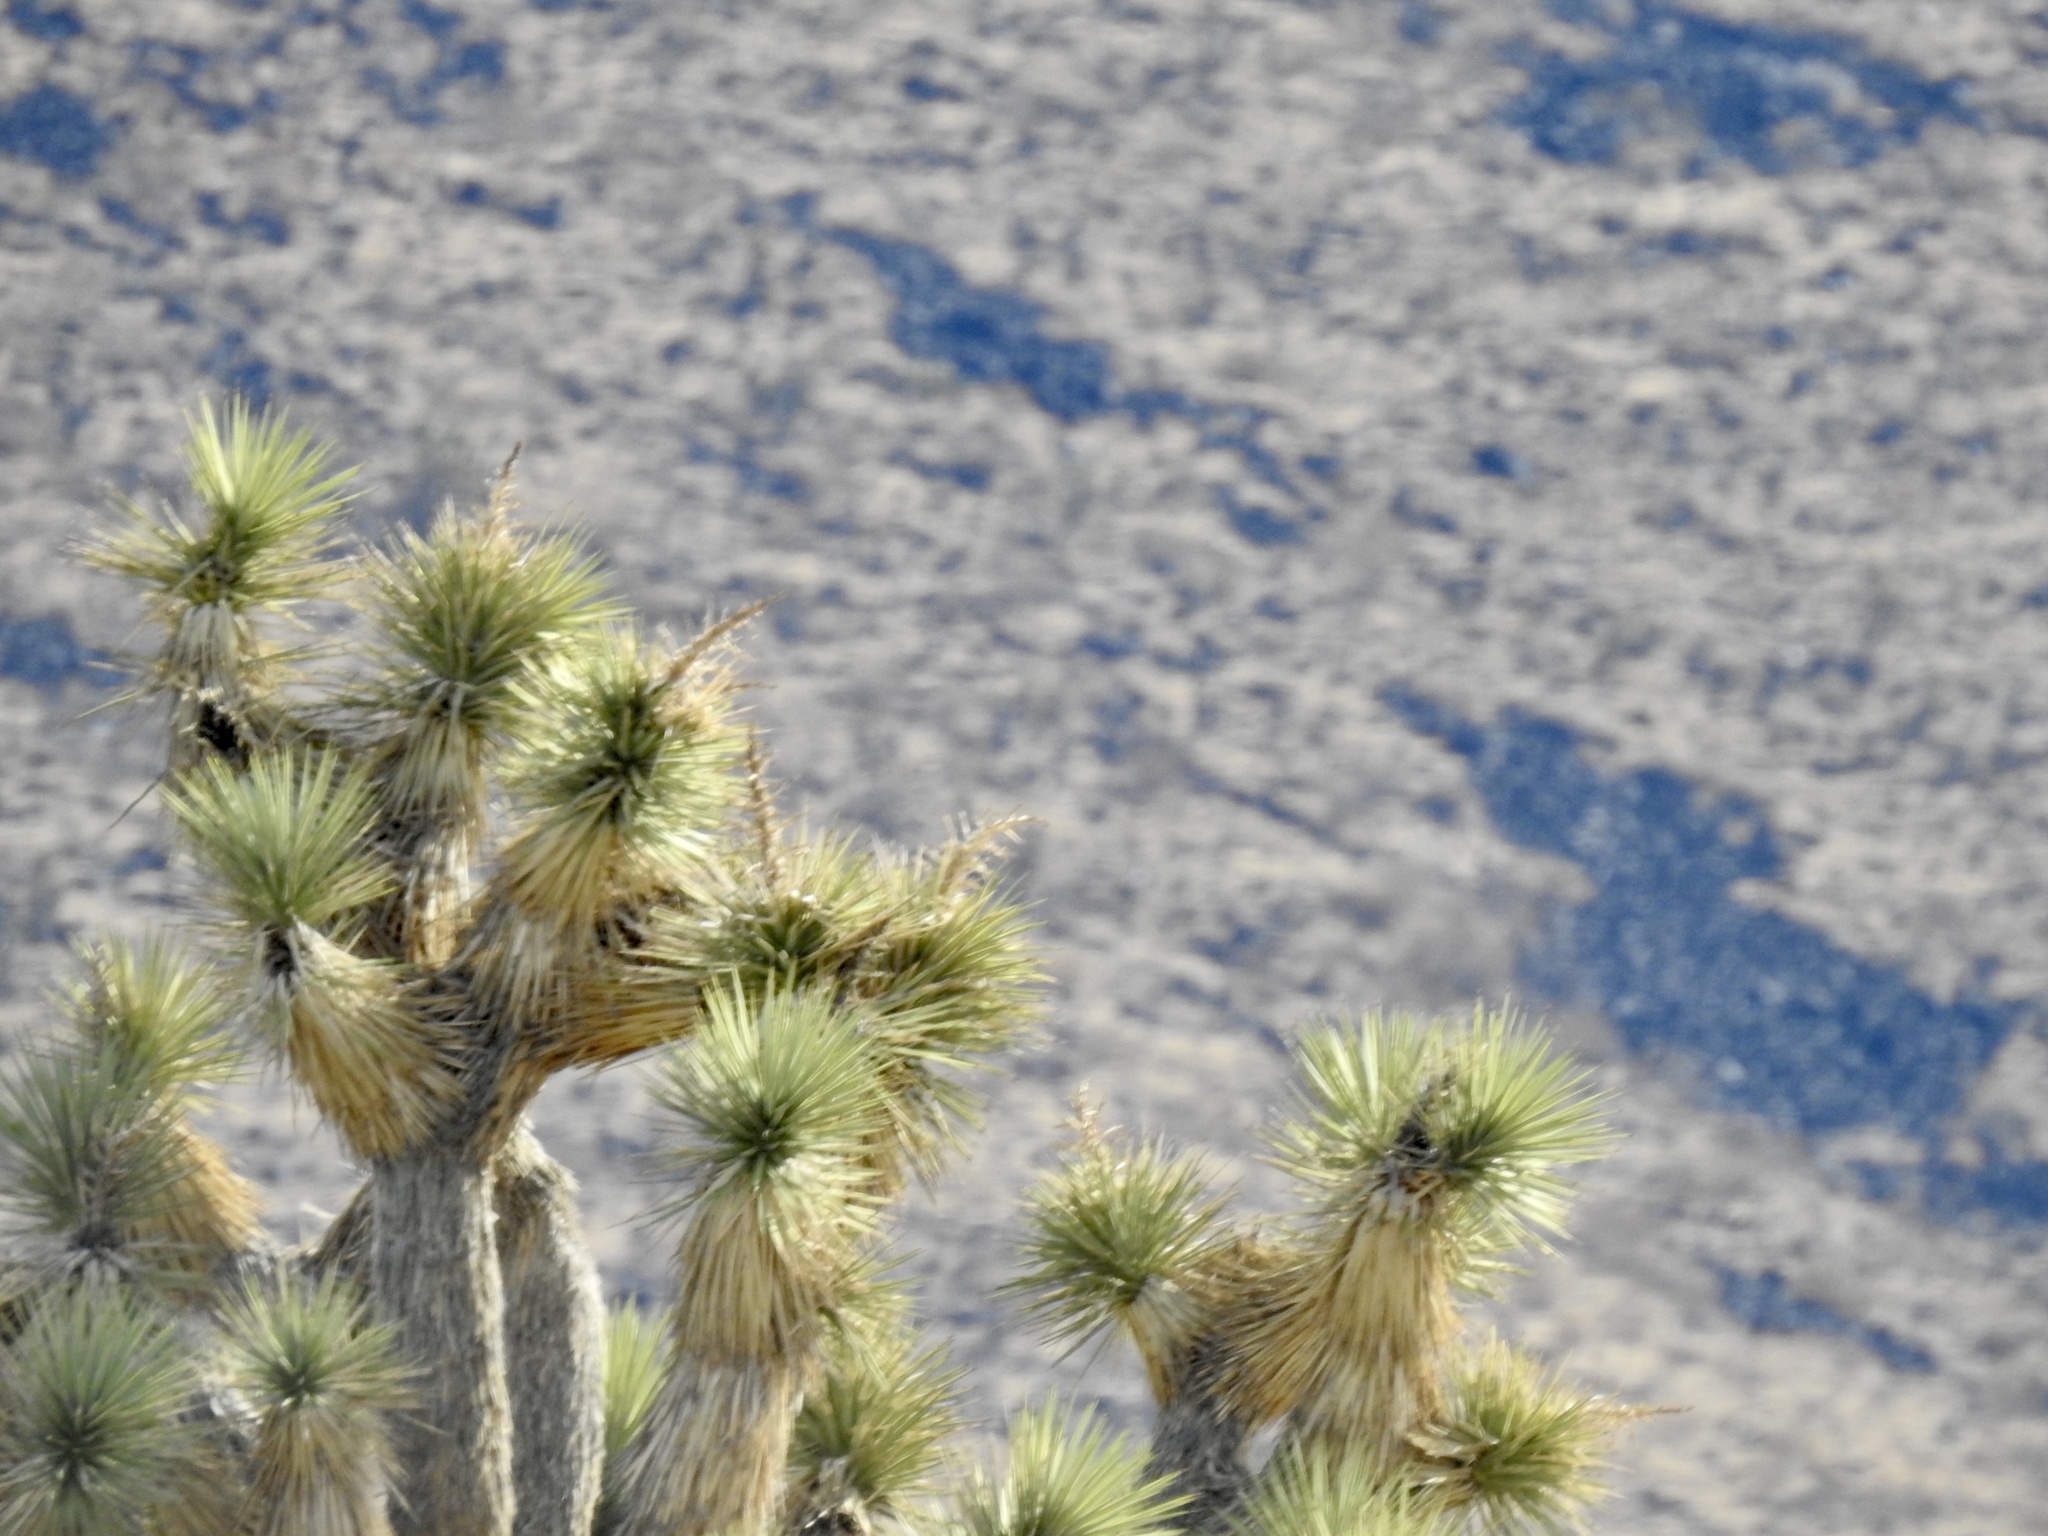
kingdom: Plantae
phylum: Tracheophyta
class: Liliopsida
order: Asparagales
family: Asparagaceae
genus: Yucca
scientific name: Yucca brevifolia
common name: Joshua tree
